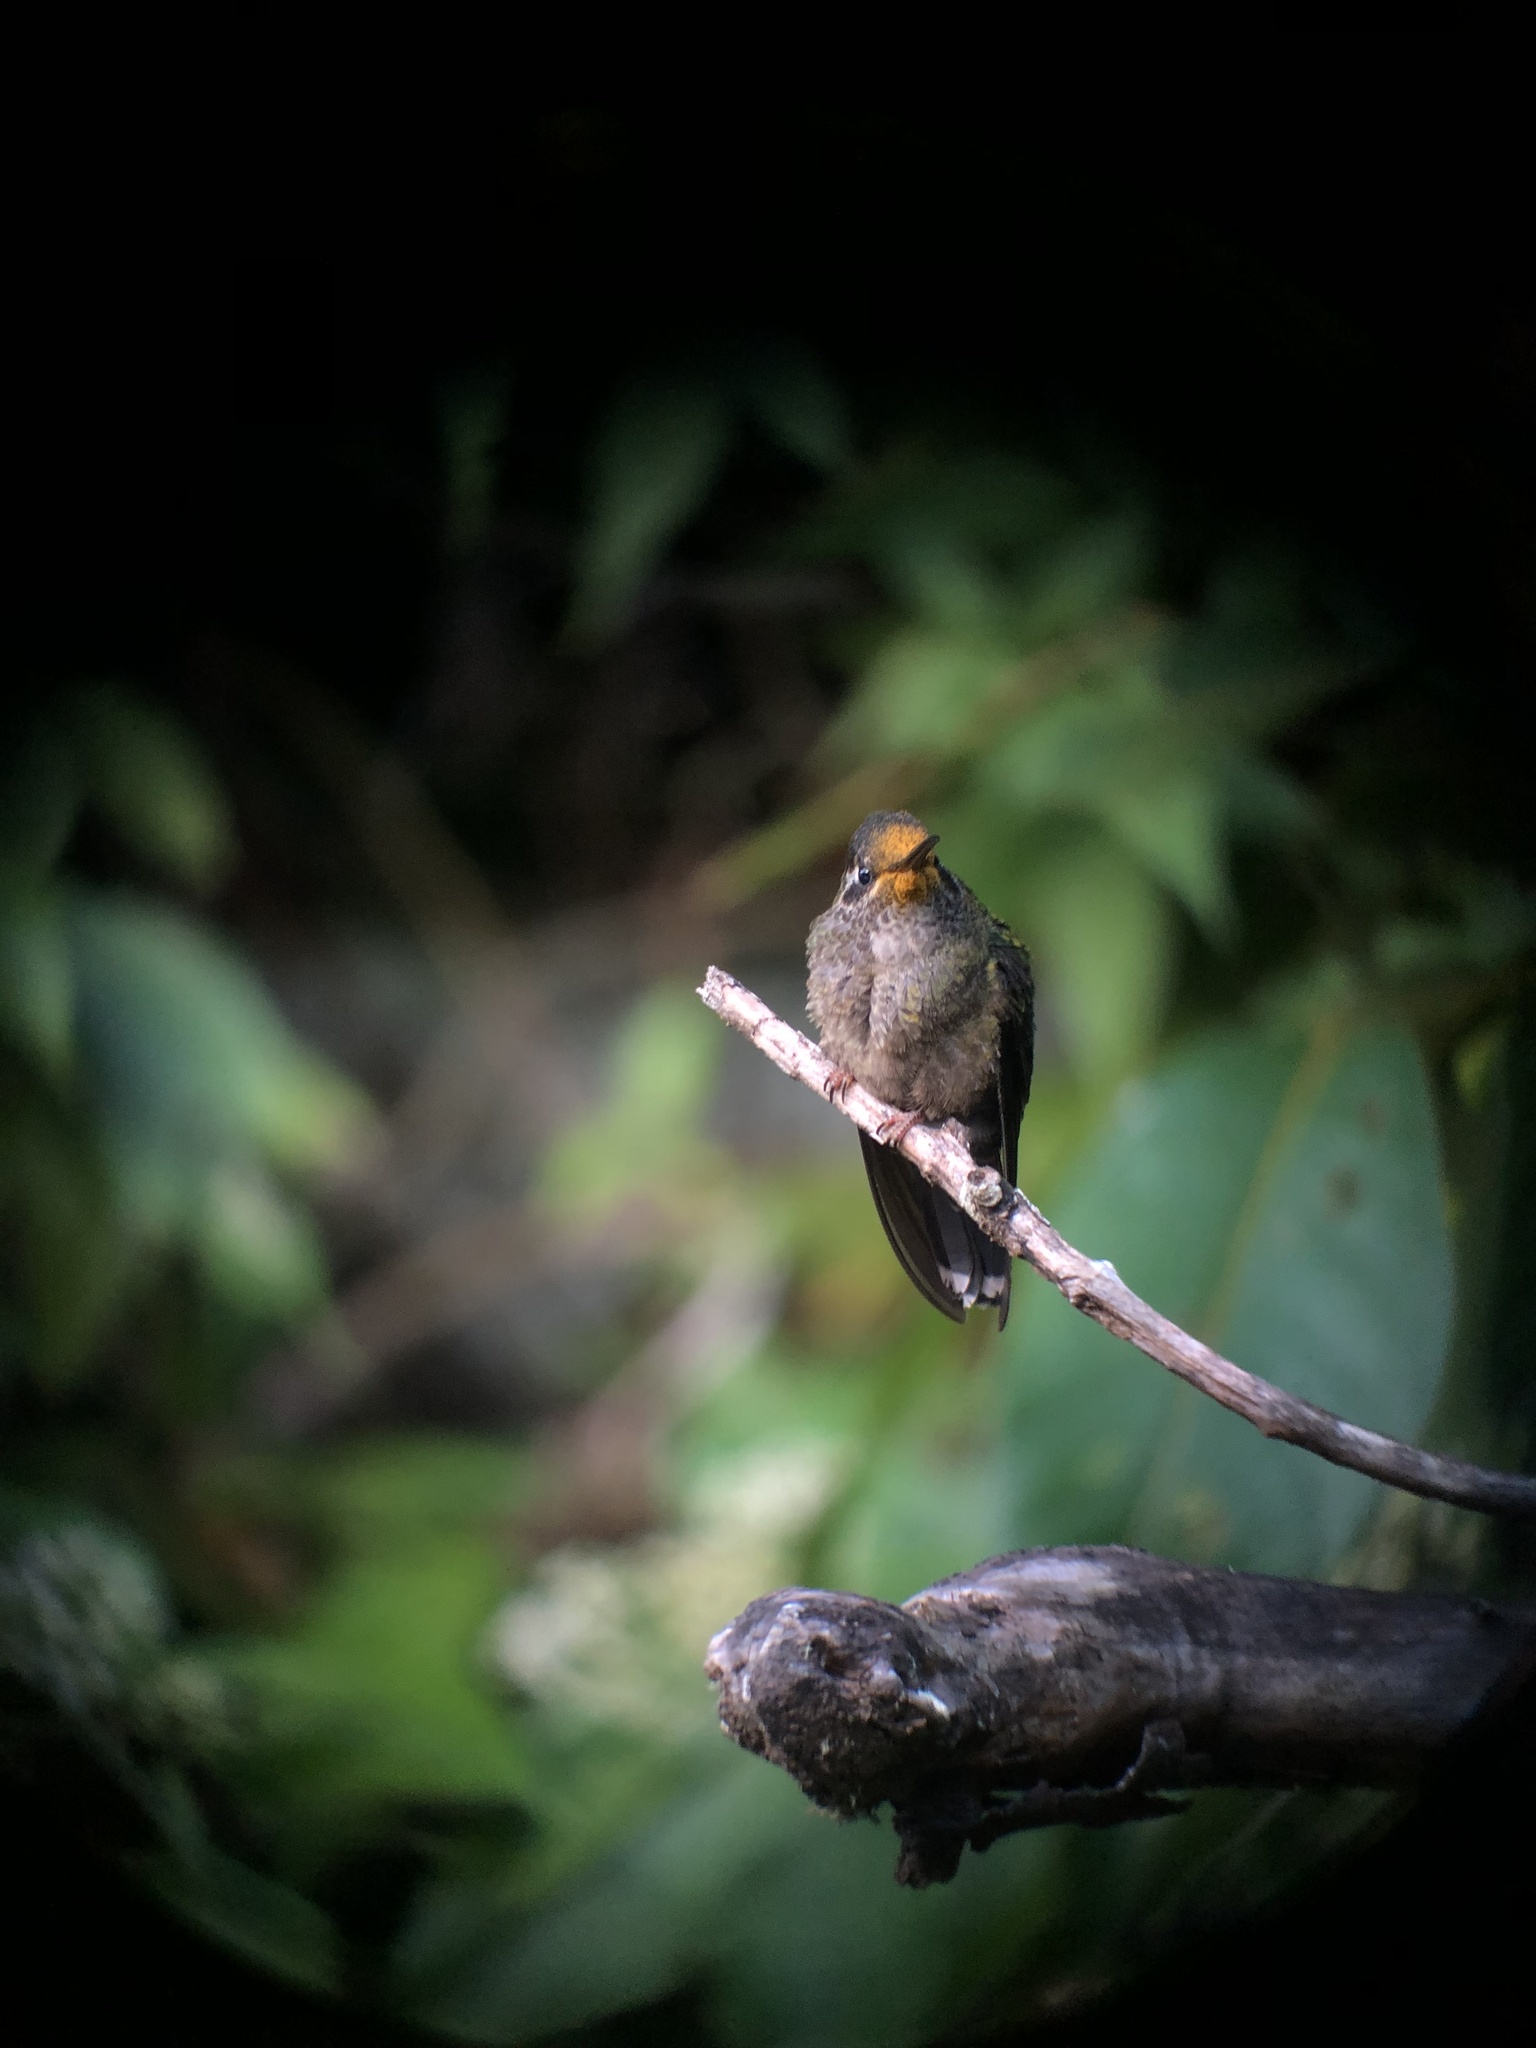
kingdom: Animalia
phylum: Chordata
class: Aves
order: Apodiformes
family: Trochilidae
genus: Eugenes
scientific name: Eugenes spectabilis
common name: Talamanca hummingbird
